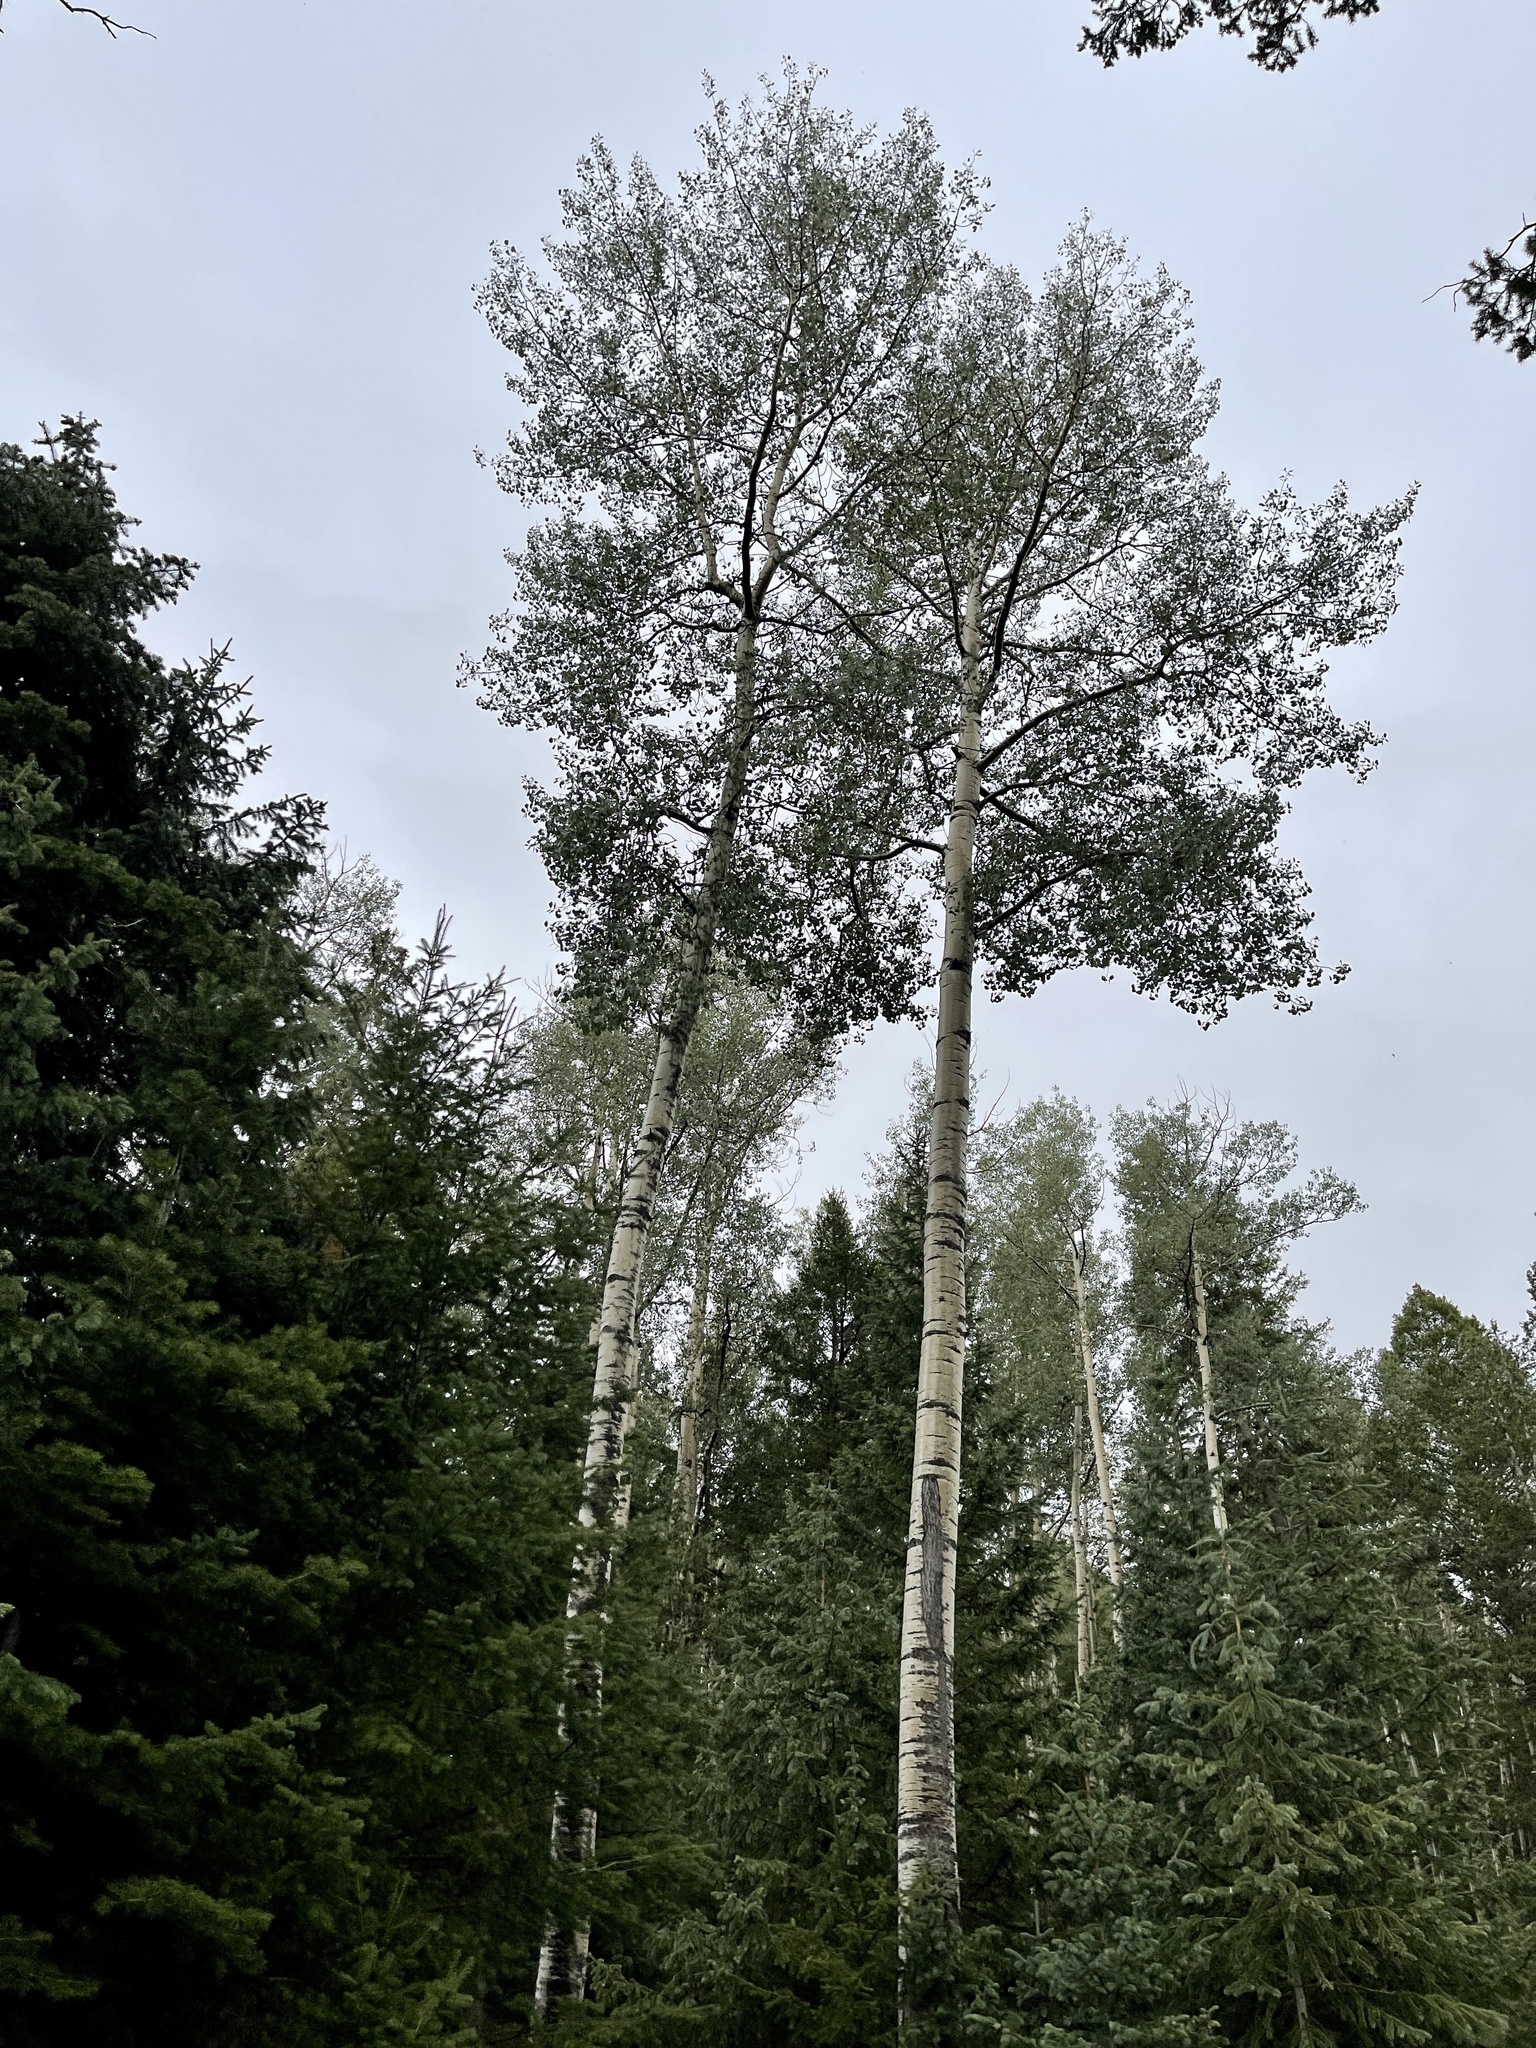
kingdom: Plantae
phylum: Tracheophyta
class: Magnoliopsida
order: Malpighiales
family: Salicaceae
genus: Populus
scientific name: Populus tremuloides
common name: Quaking aspen
